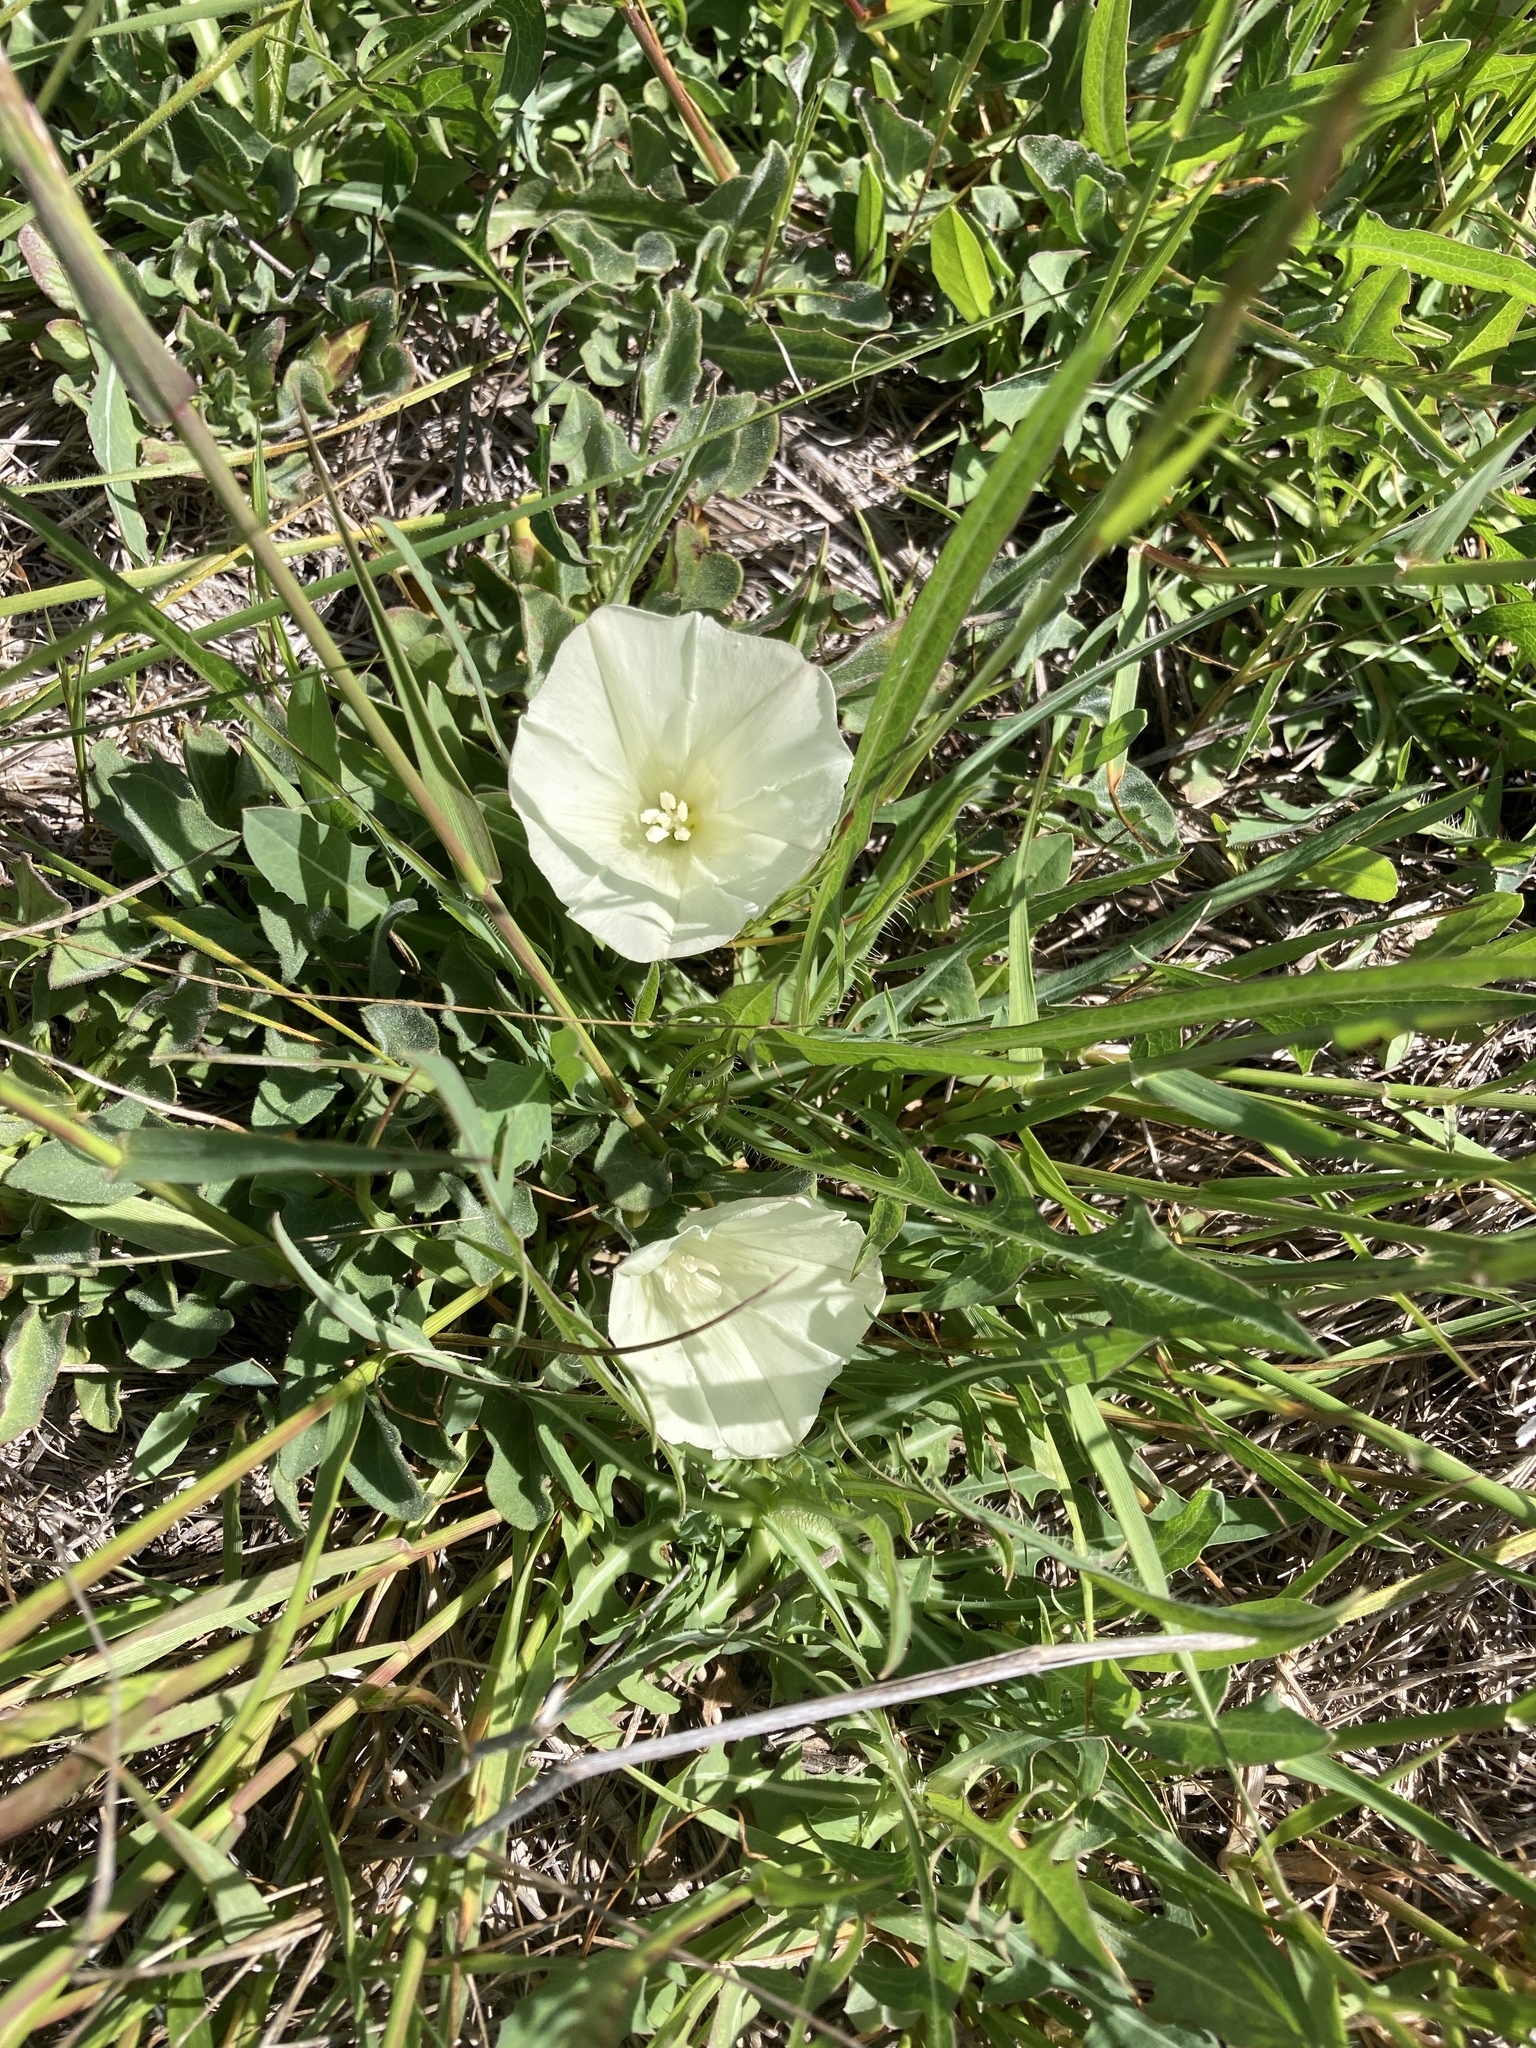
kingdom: Plantae
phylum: Tracheophyta
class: Magnoliopsida
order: Solanales
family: Convolvulaceae
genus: Calystegia
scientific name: Calystegia subacaulis
